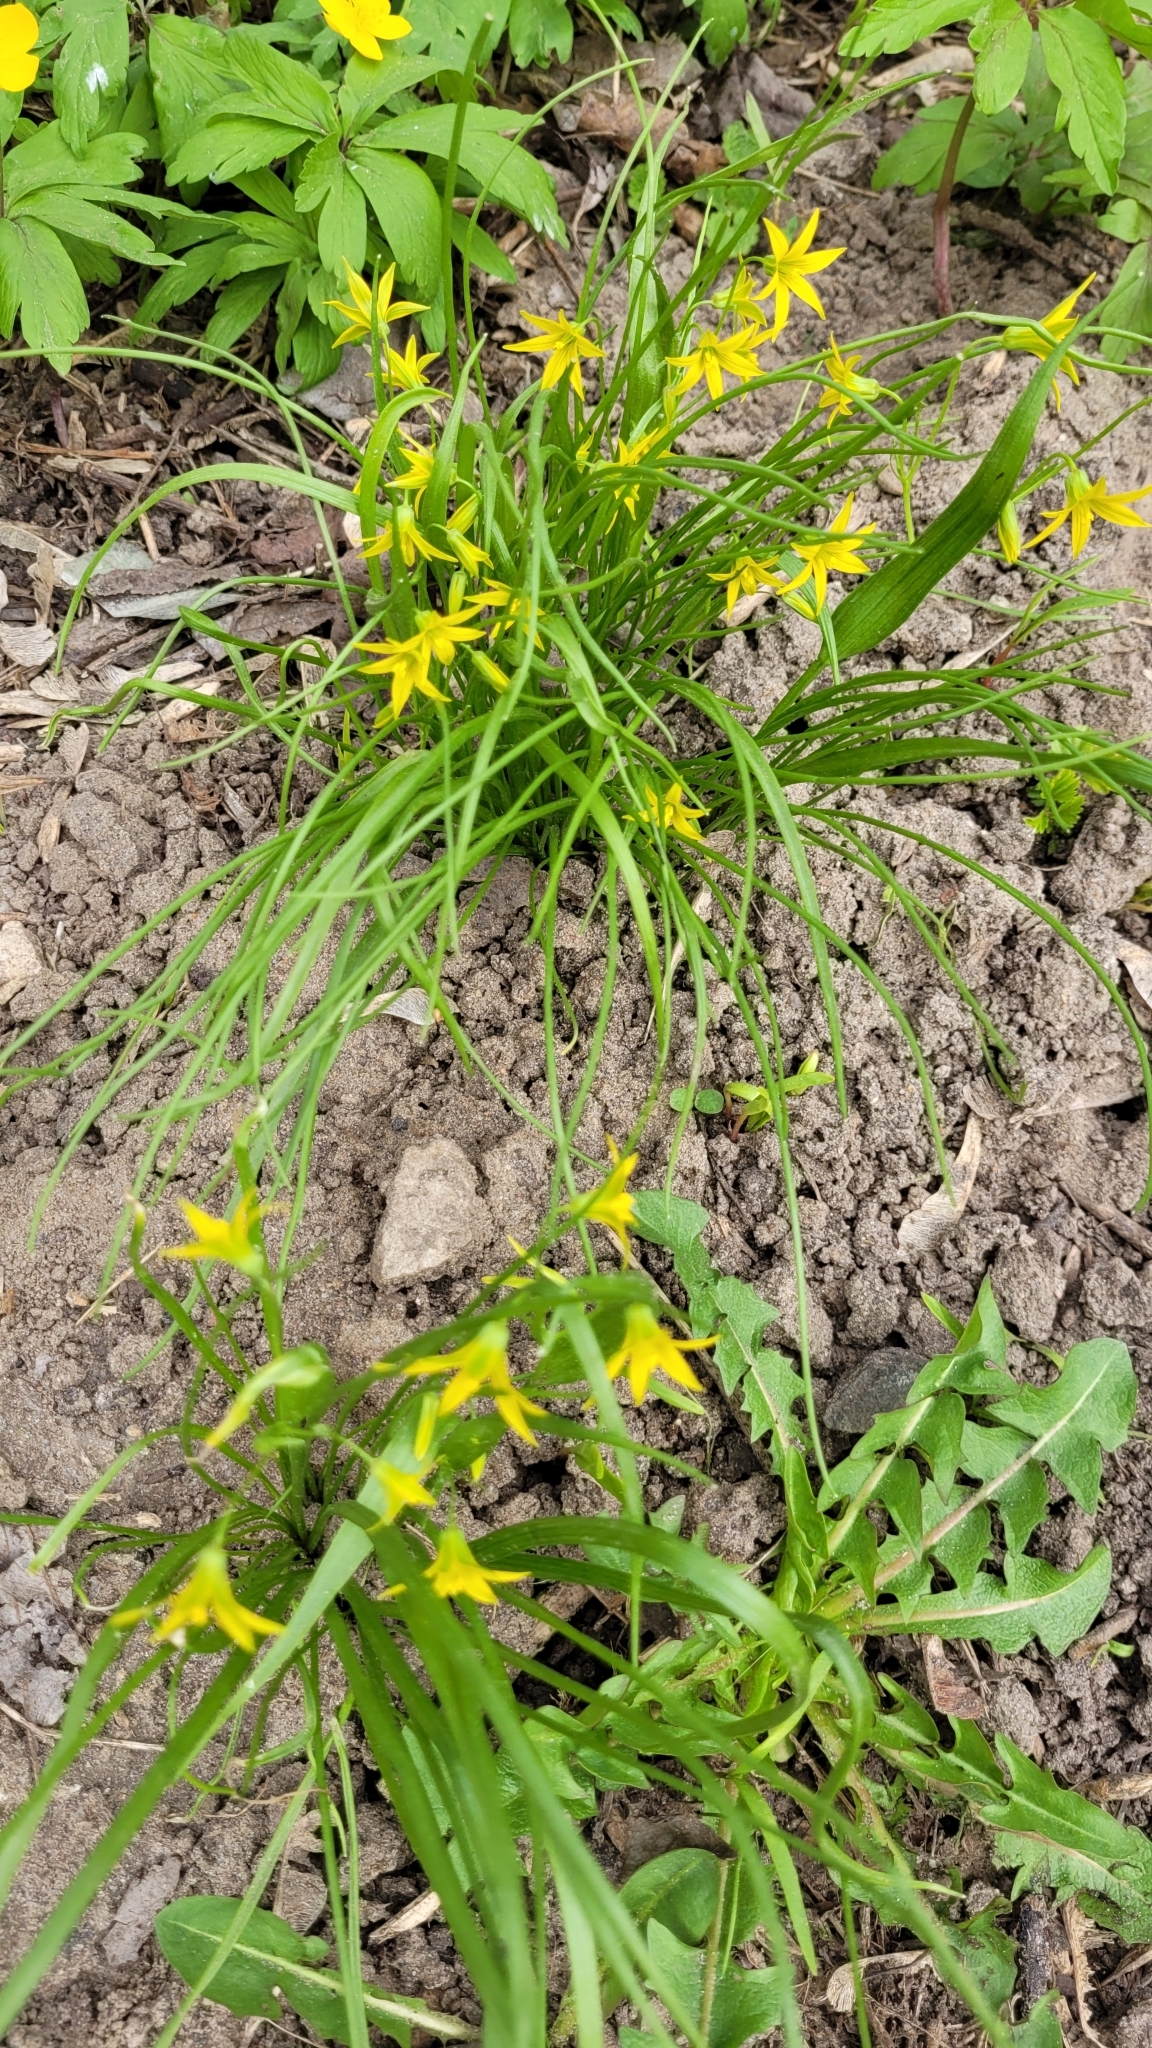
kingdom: Plantae
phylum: Tracheophyta
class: Liliopsida
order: Liliales
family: Liliaceae
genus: Gagea
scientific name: Gagea minima
